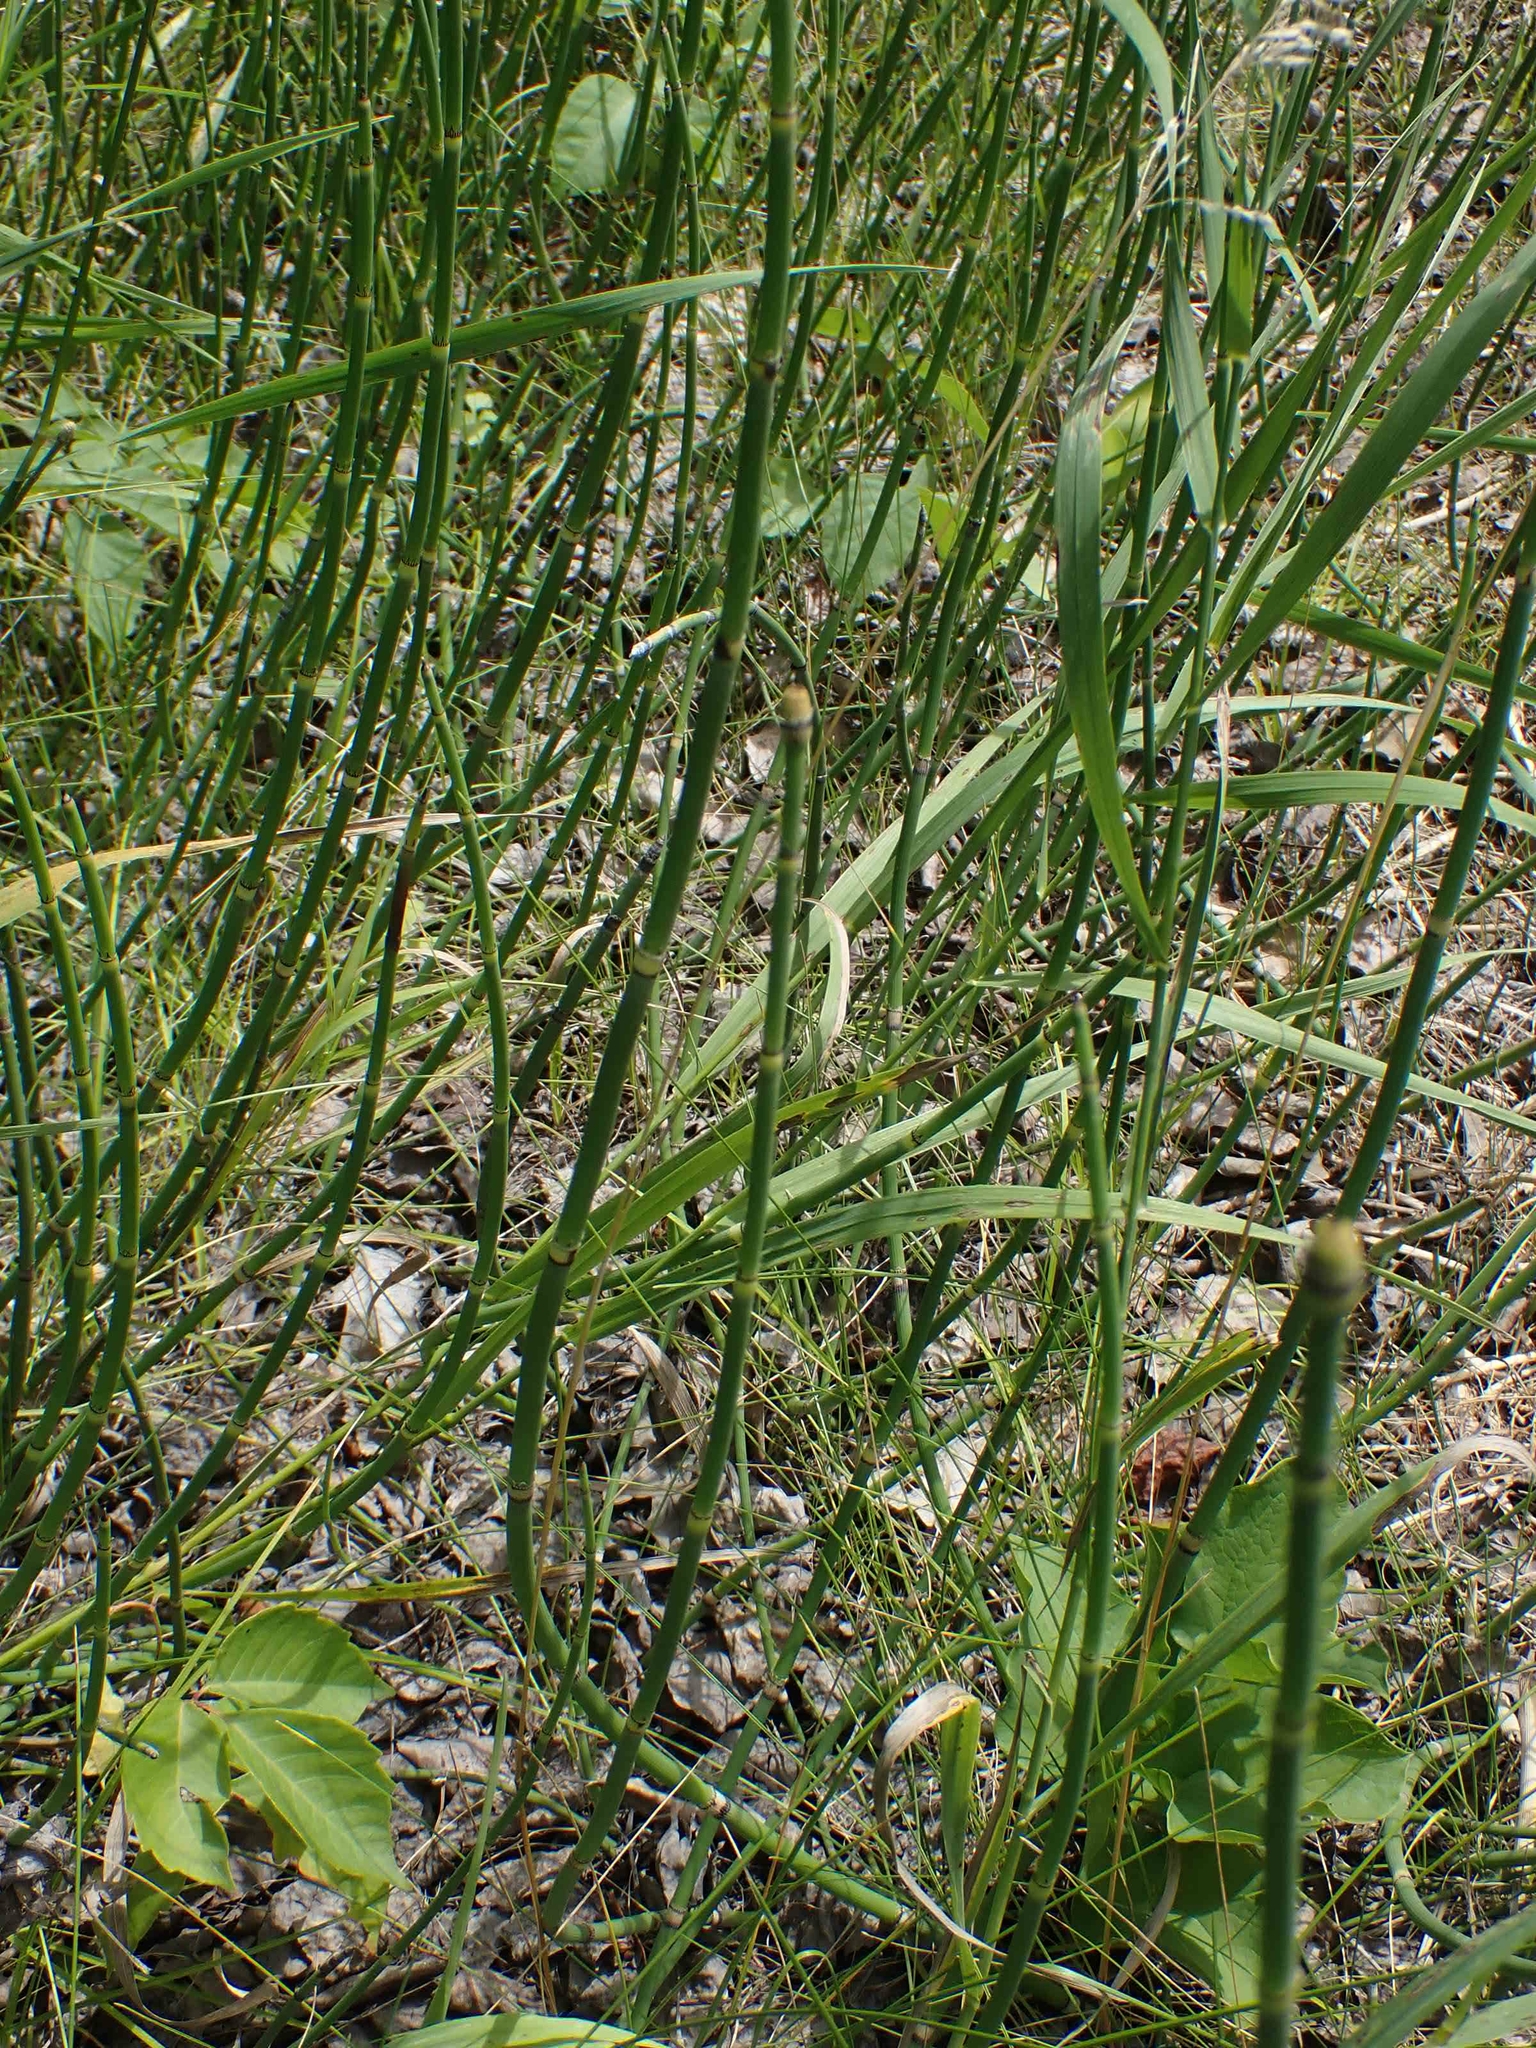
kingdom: Plantae
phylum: Tracheophyta
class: Polypodiopsida
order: Equisetales
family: Equisetaceae
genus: Equisetum
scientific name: Equisetum praealtum
